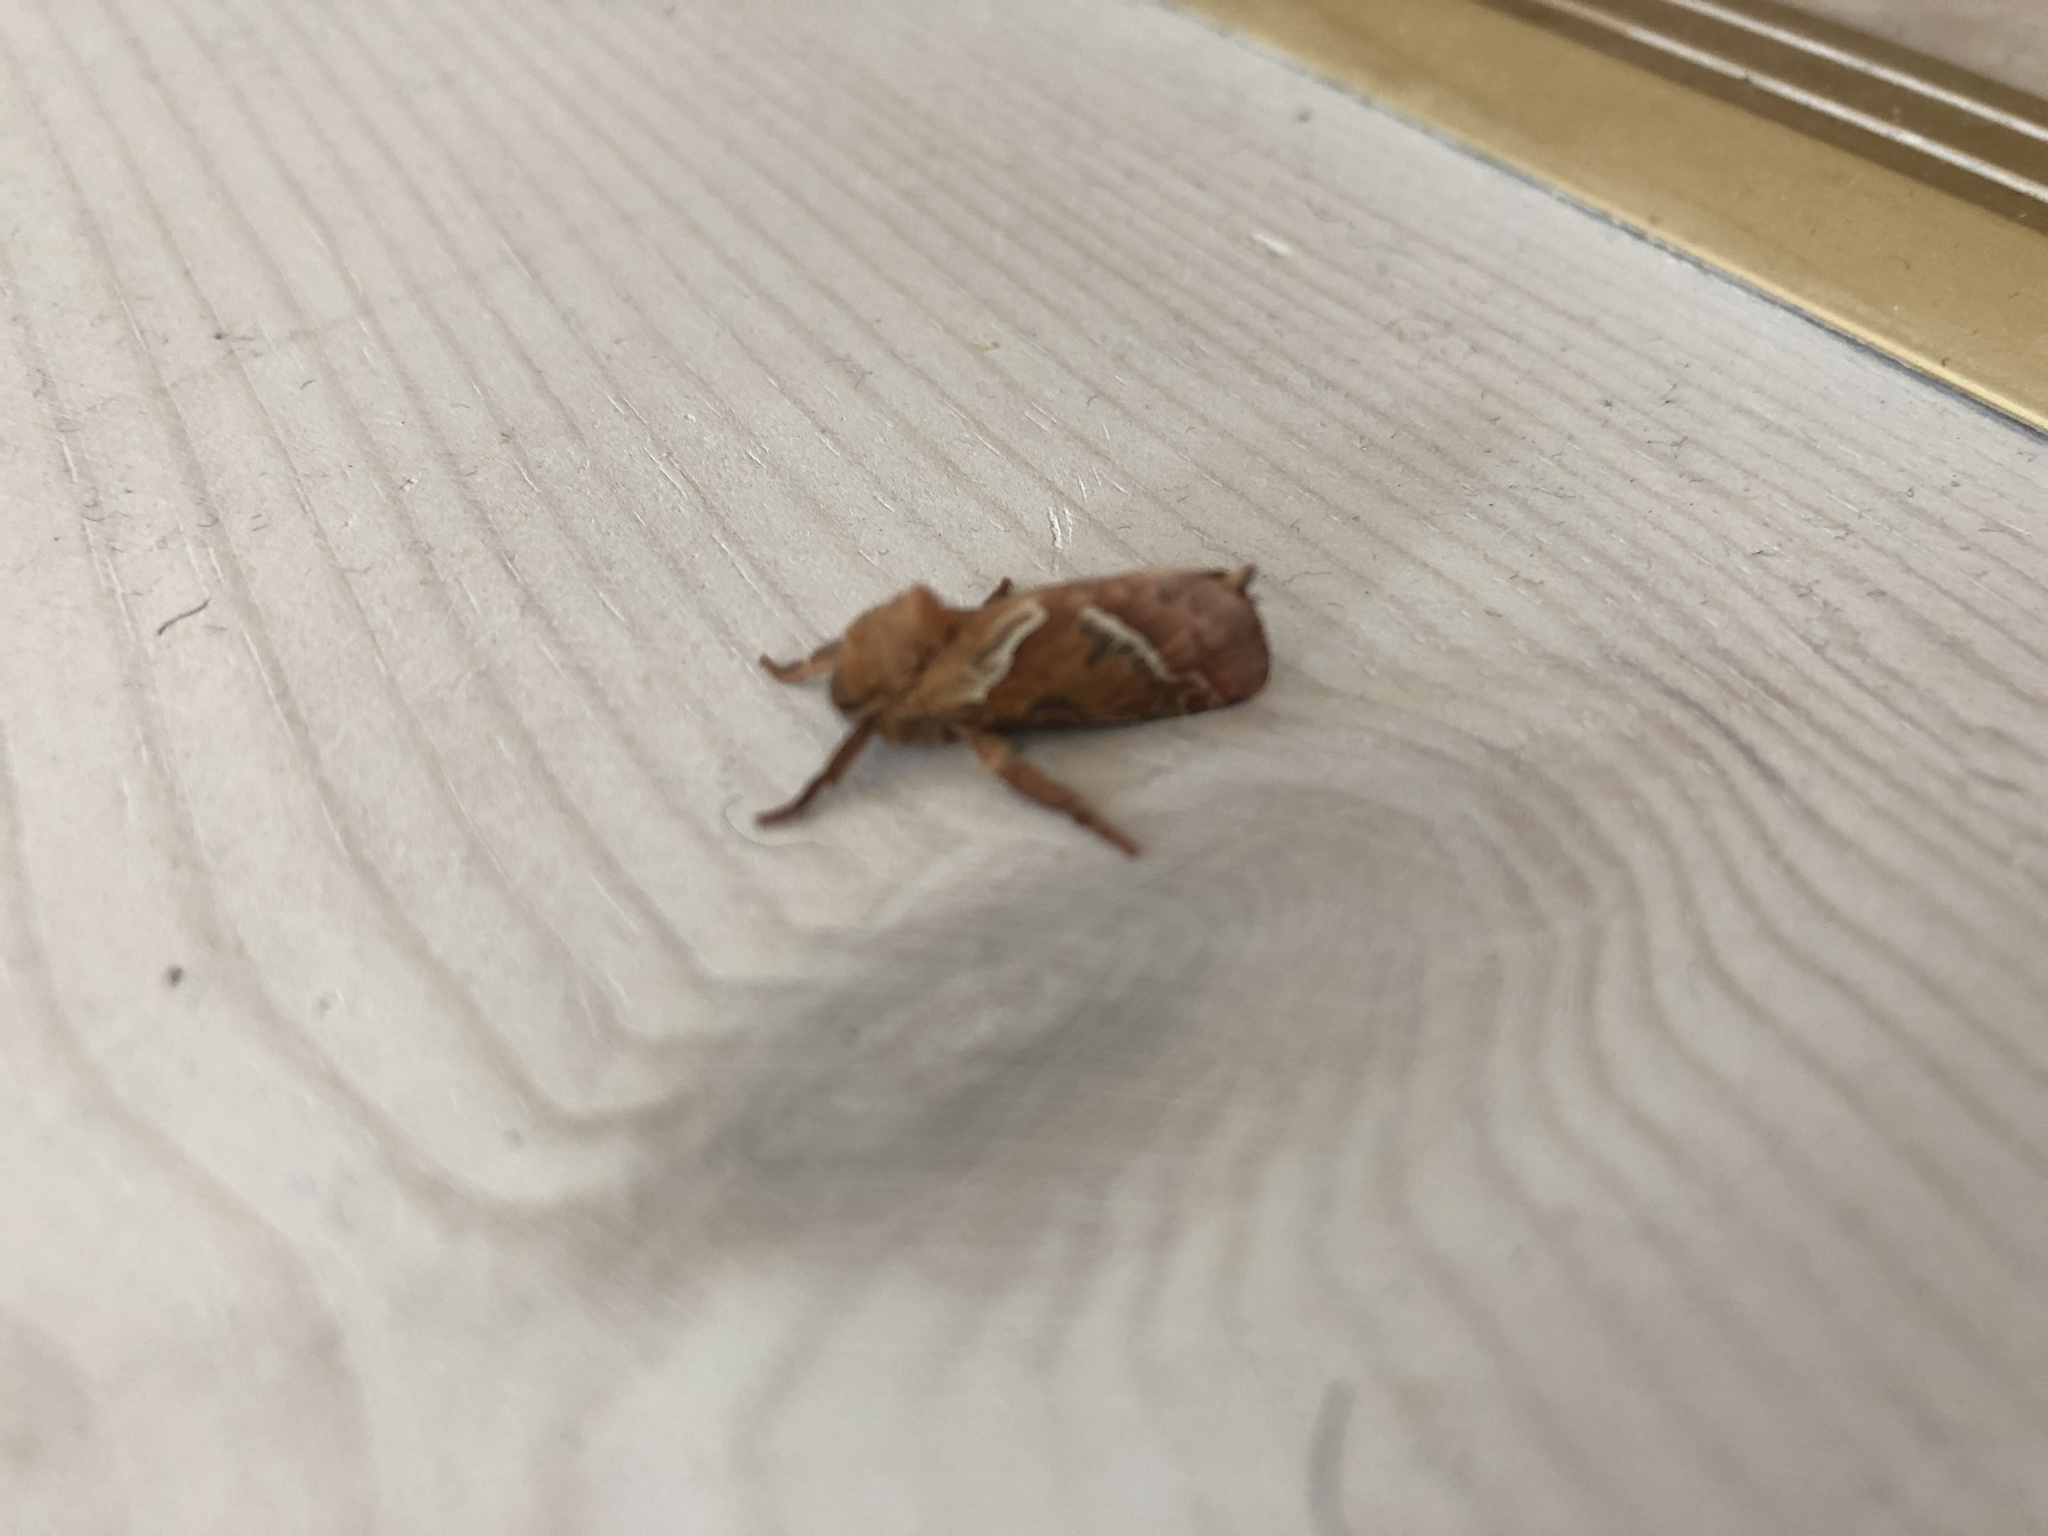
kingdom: Animalia
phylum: Arthropoda
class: Insecta
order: Lepidoptera
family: Hepialidae
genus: Triodia
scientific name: Triodia sylvina
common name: Orange swift
